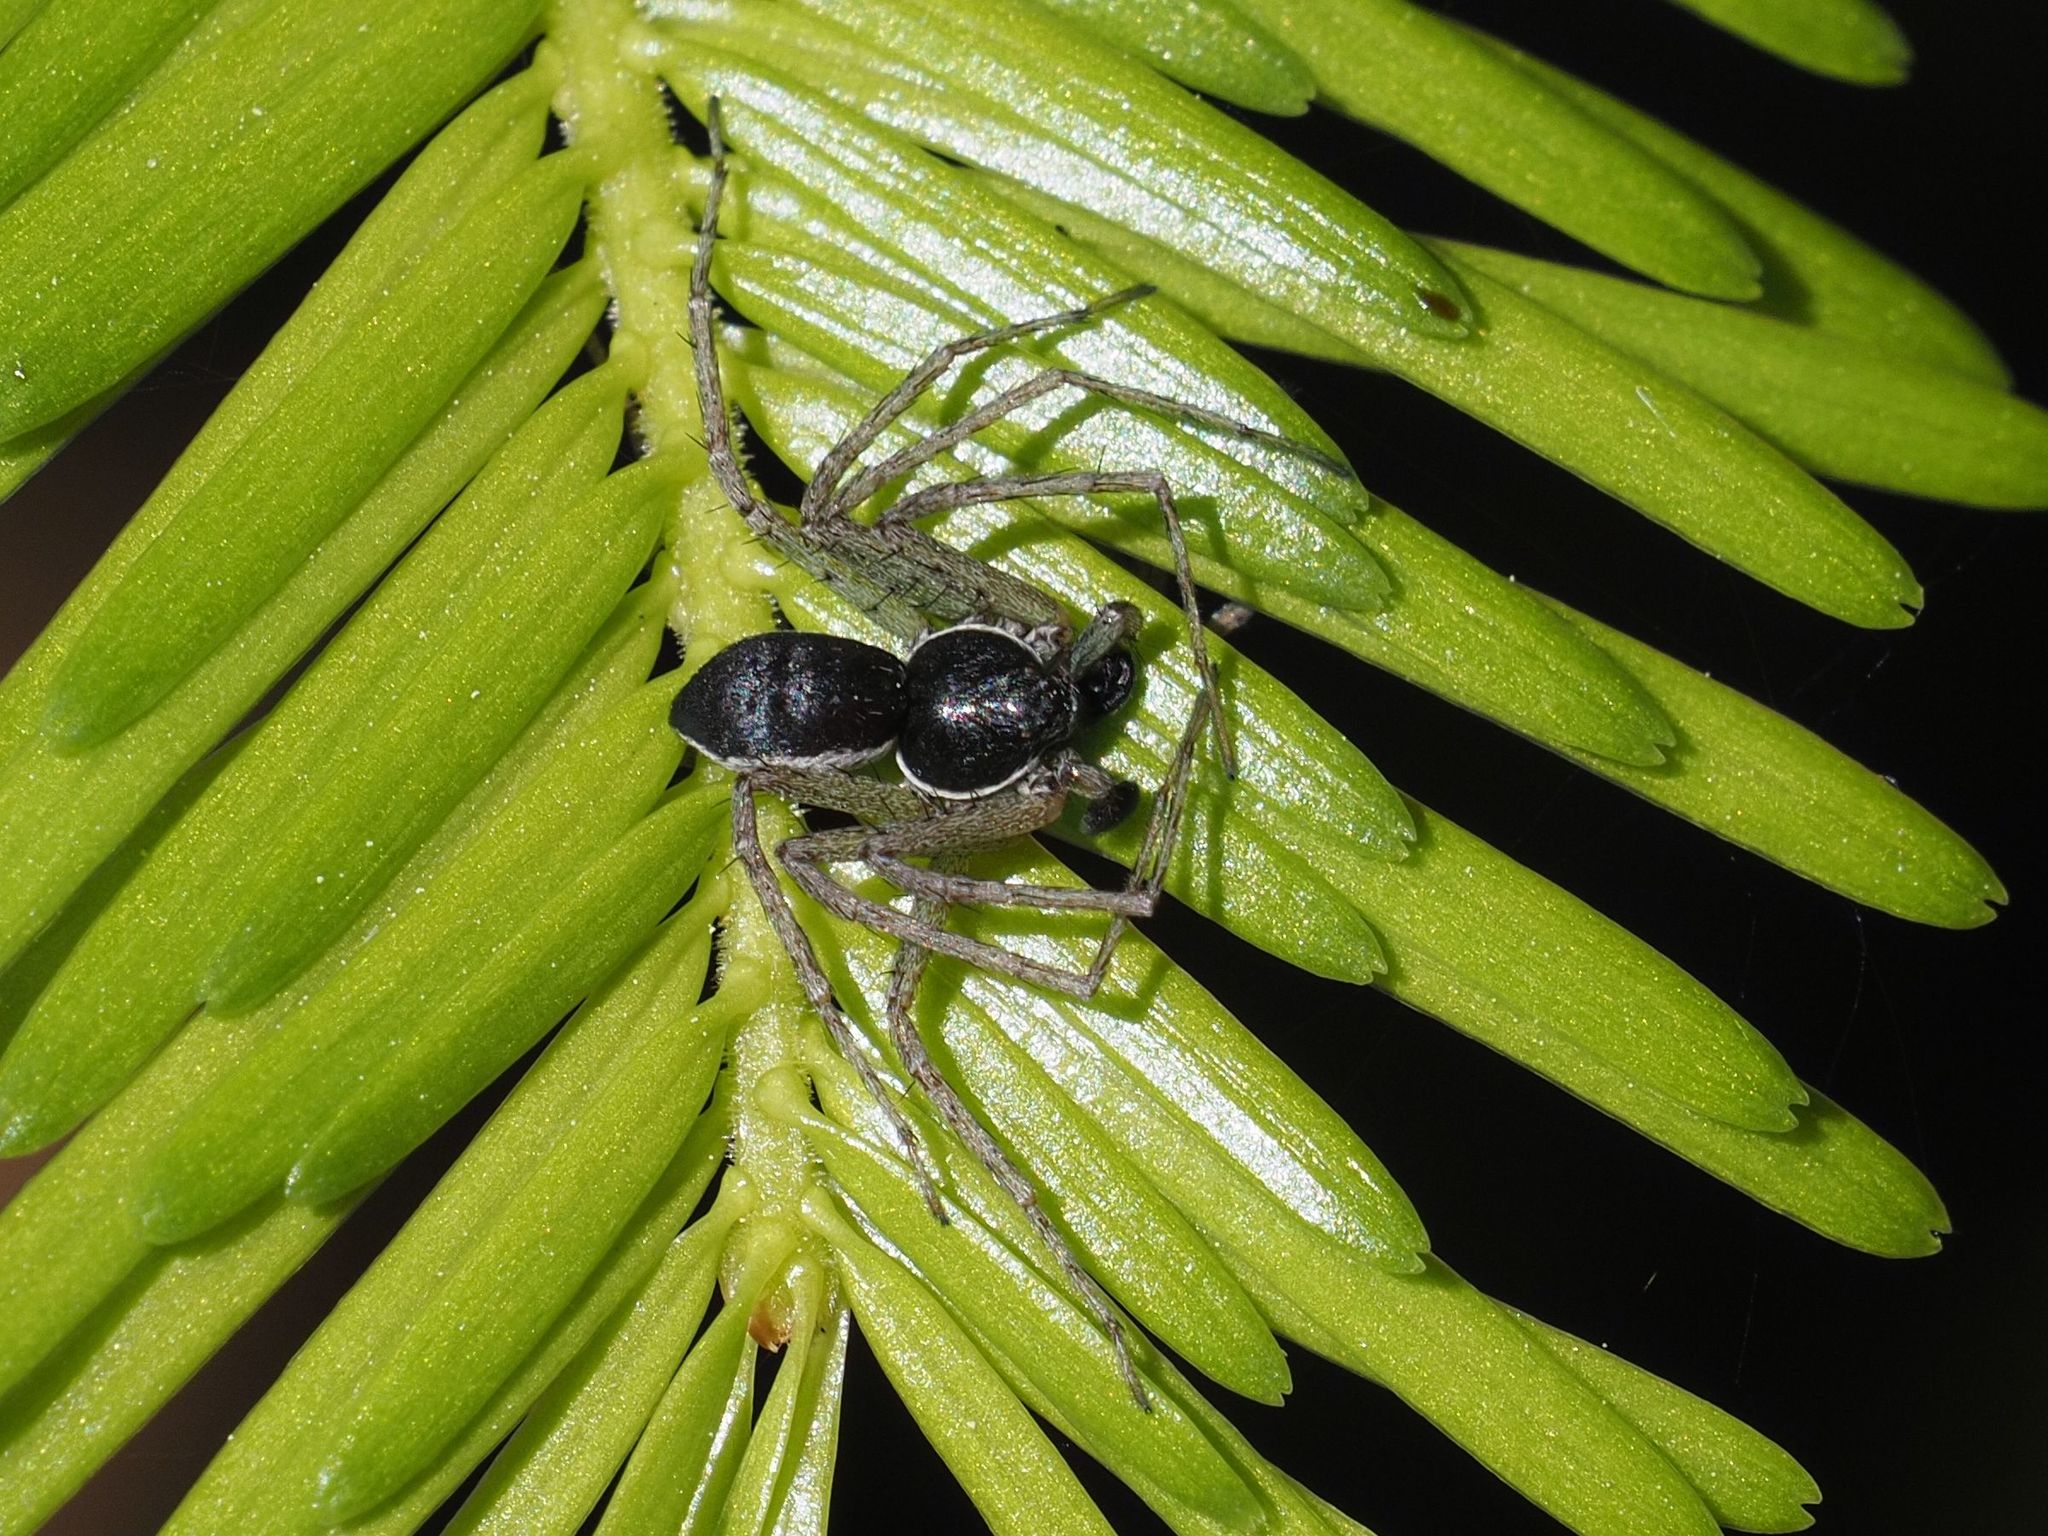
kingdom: Animalia
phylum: Arthropoda
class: Arachnida
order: Araneae
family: Philodromidae
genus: Philodromus
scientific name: Philodromus dispar
